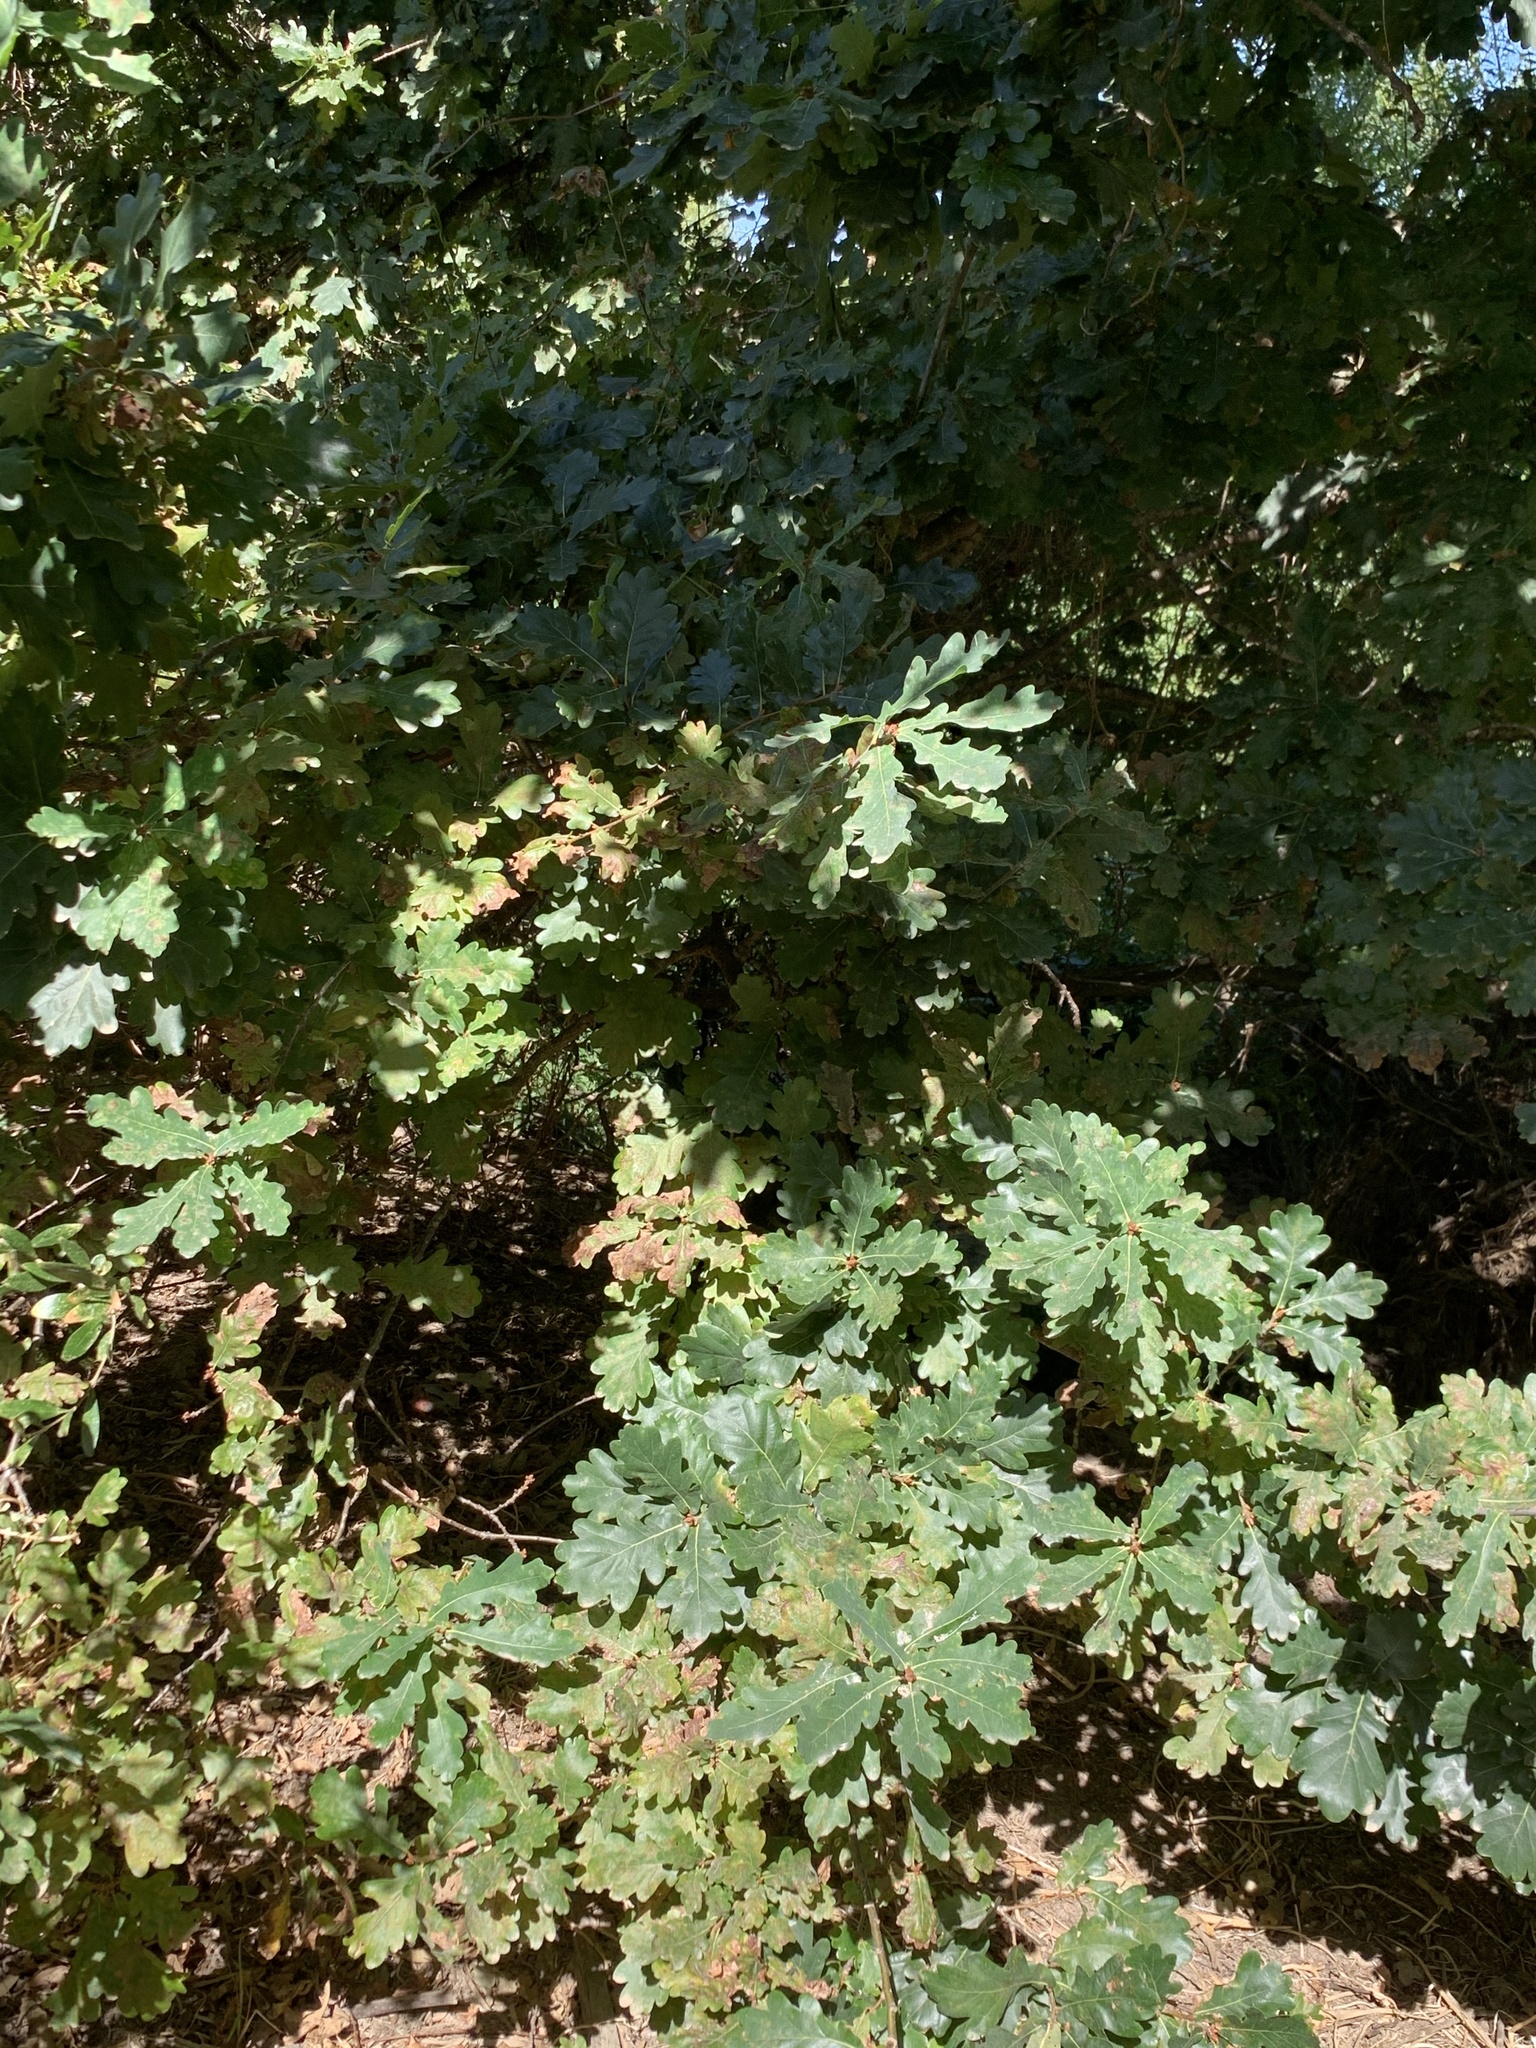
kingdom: Plantae
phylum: Tracheophyta
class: Magnoliopsida
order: Fagales
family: Fagaceae
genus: Quercus
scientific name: Quercus robur
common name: Pedunculate oak
